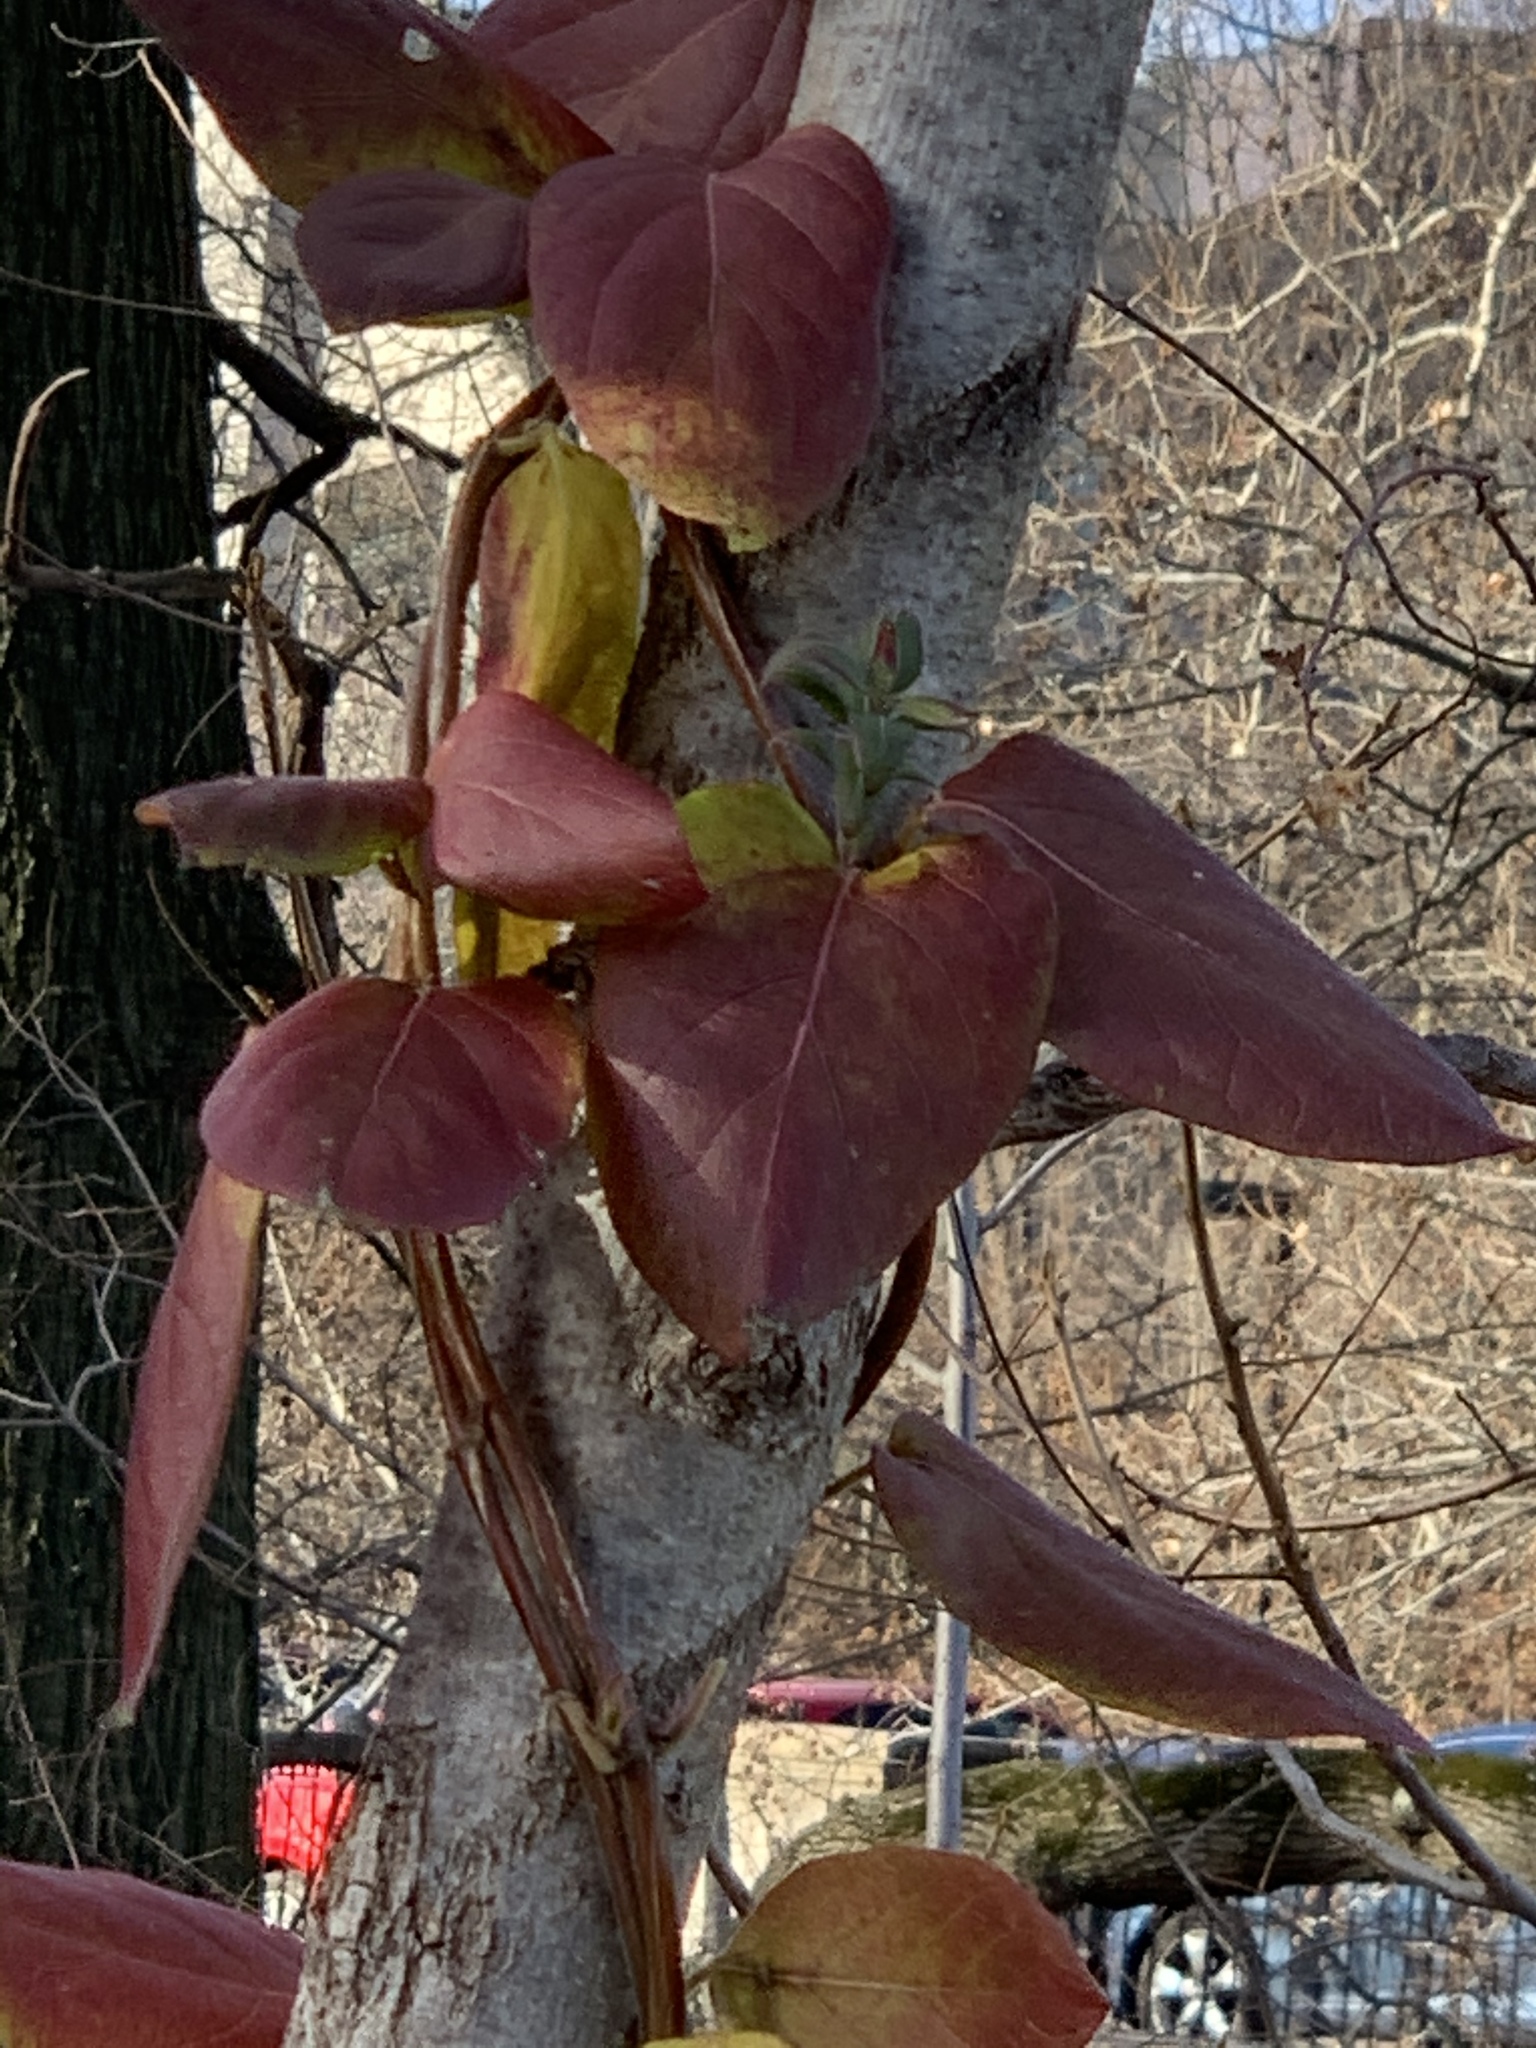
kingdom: Plantae
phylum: Tracheophyta
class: Magnoliopsida
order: Dipsacales
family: Caprifoliaceae
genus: Lonicera
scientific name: Lonicera japonica
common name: Japanese honeysuckle
